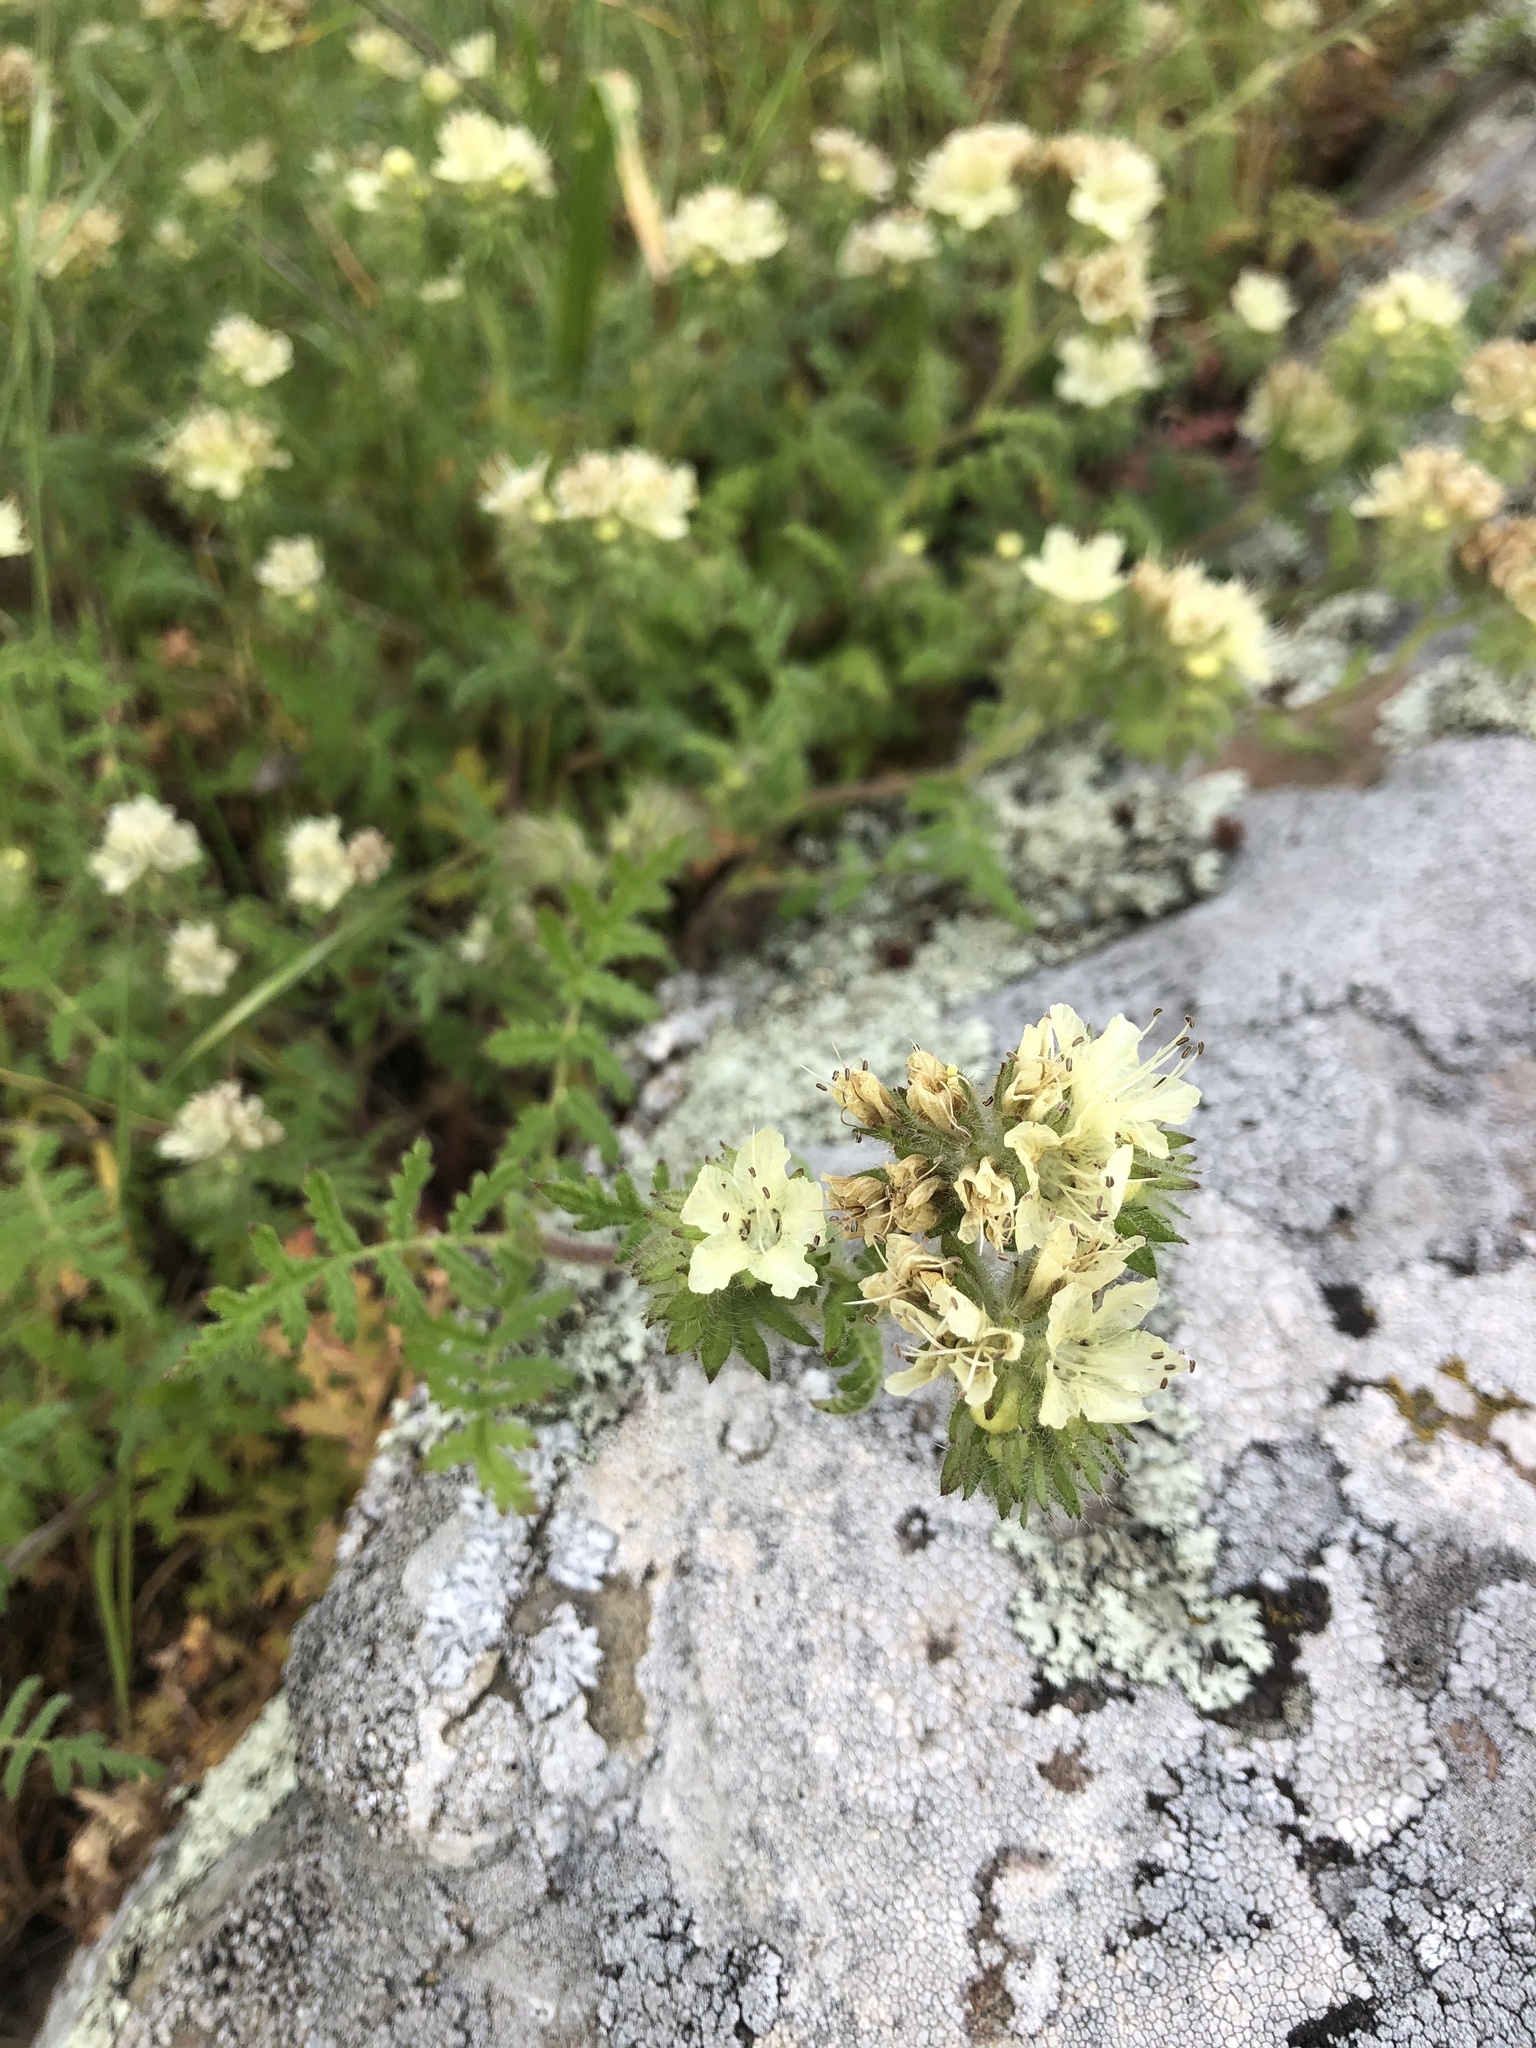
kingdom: Plantae
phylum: Tracheophyta
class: Magnoliopsida
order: Boraginales
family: Hydrophyllaceae
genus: Phacelia
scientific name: Phacelia distans
